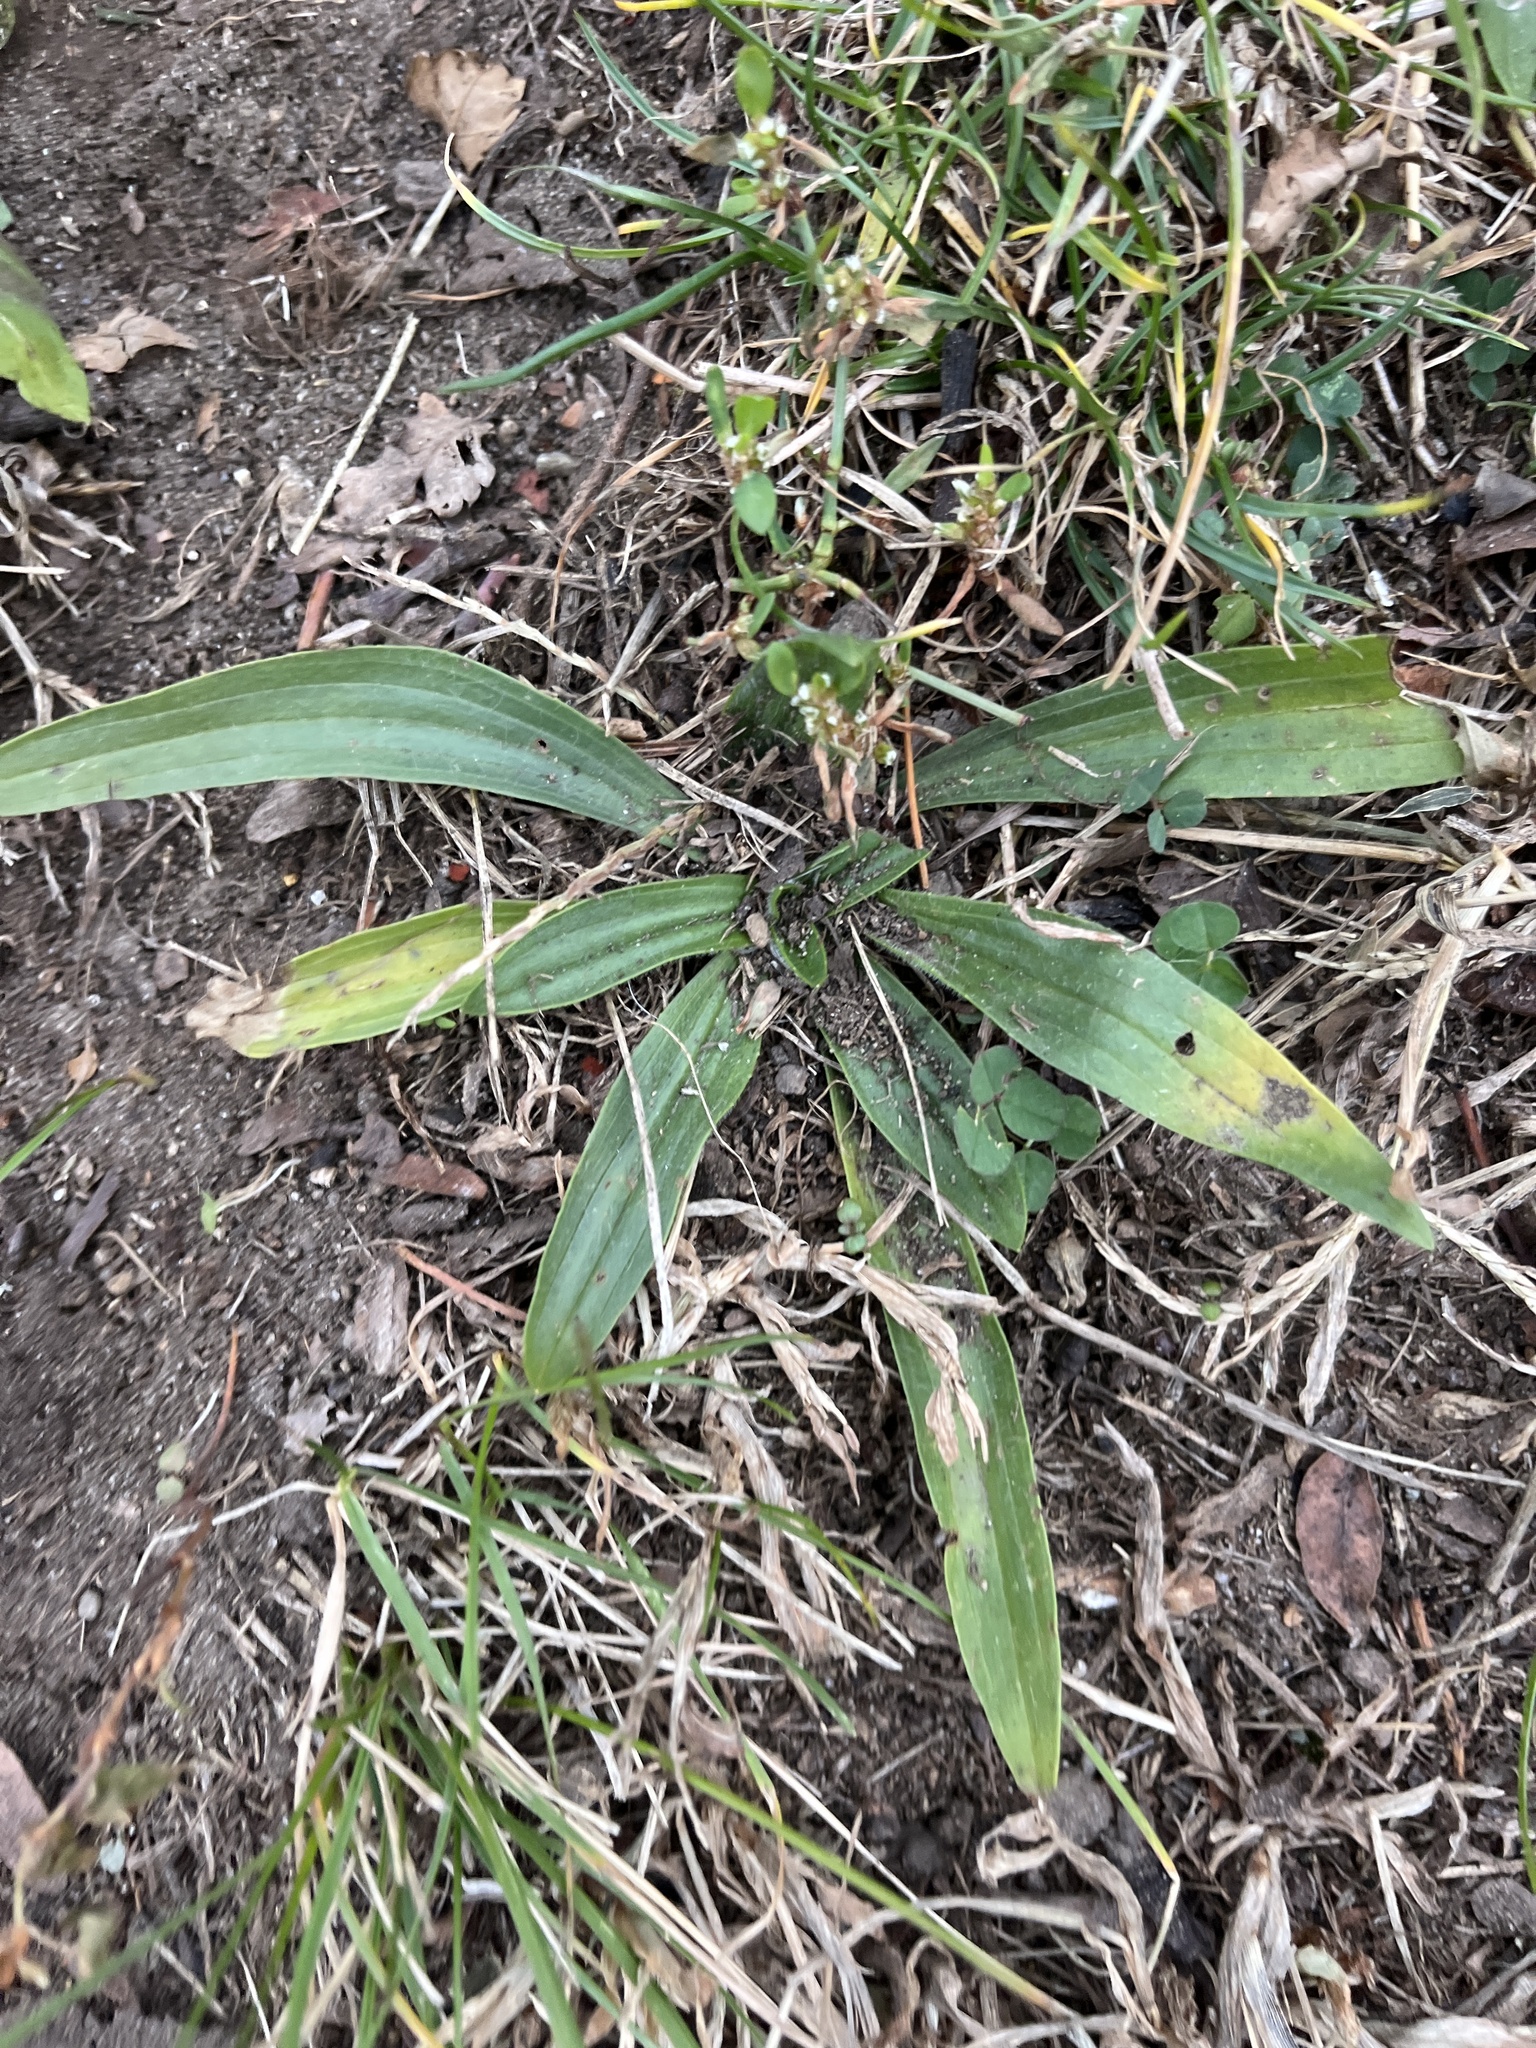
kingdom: Plantae
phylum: Tracheophyta
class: Magnoliopsida
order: Lamiales
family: Plantaginaceae
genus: Plantago
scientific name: Plantago lanceolata
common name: Ribwort plantain
